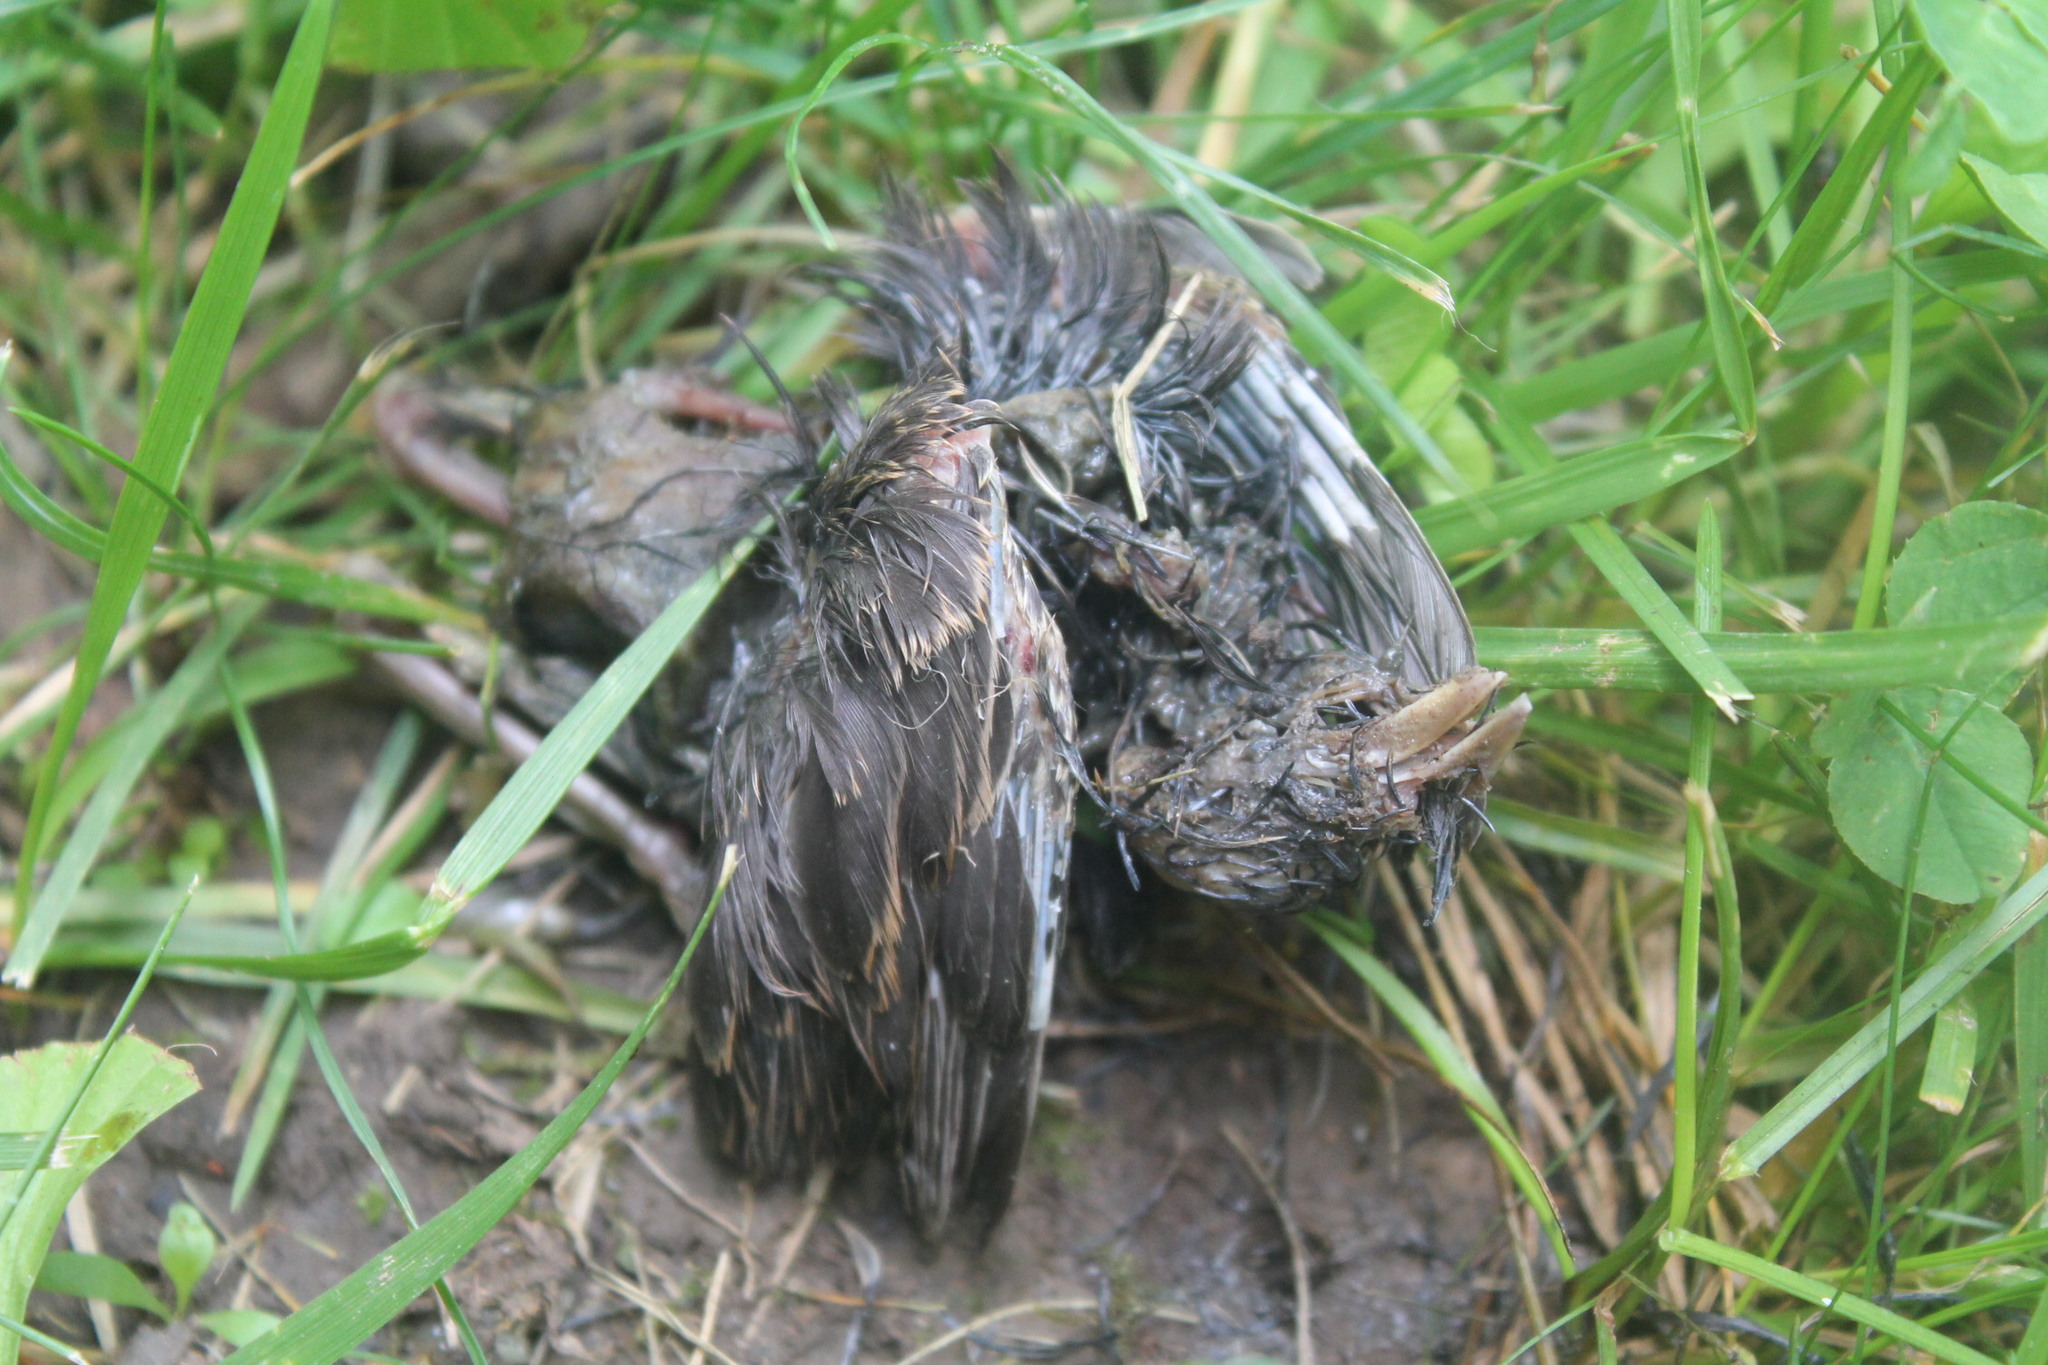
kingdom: Animalia
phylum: Chordata
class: Aves
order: Passeriformes
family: Passerellidae
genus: Spizella
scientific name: Spizella passerina
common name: Chipping sparrow
